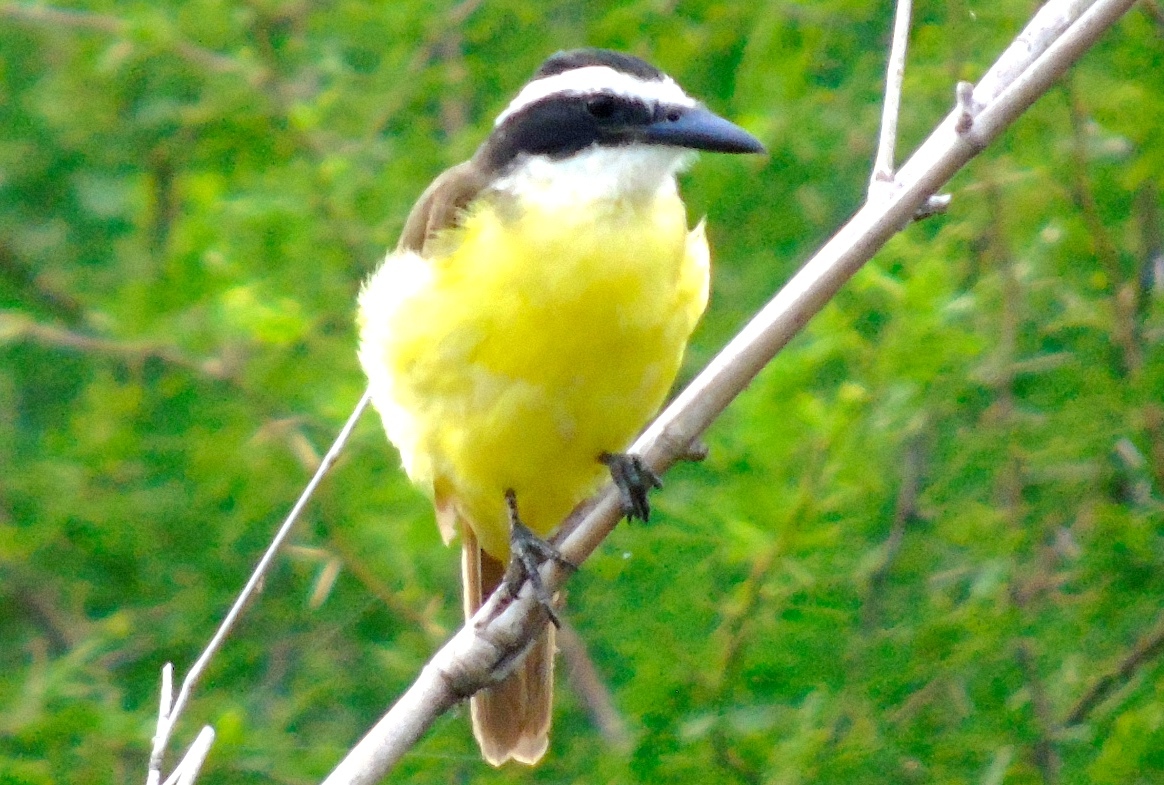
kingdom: Animalia
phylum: Chordata
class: Aves
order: Passeriformes
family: Tyrannidae
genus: Pitangus
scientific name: Pitangus sulphuratus
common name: Great kiskadee
